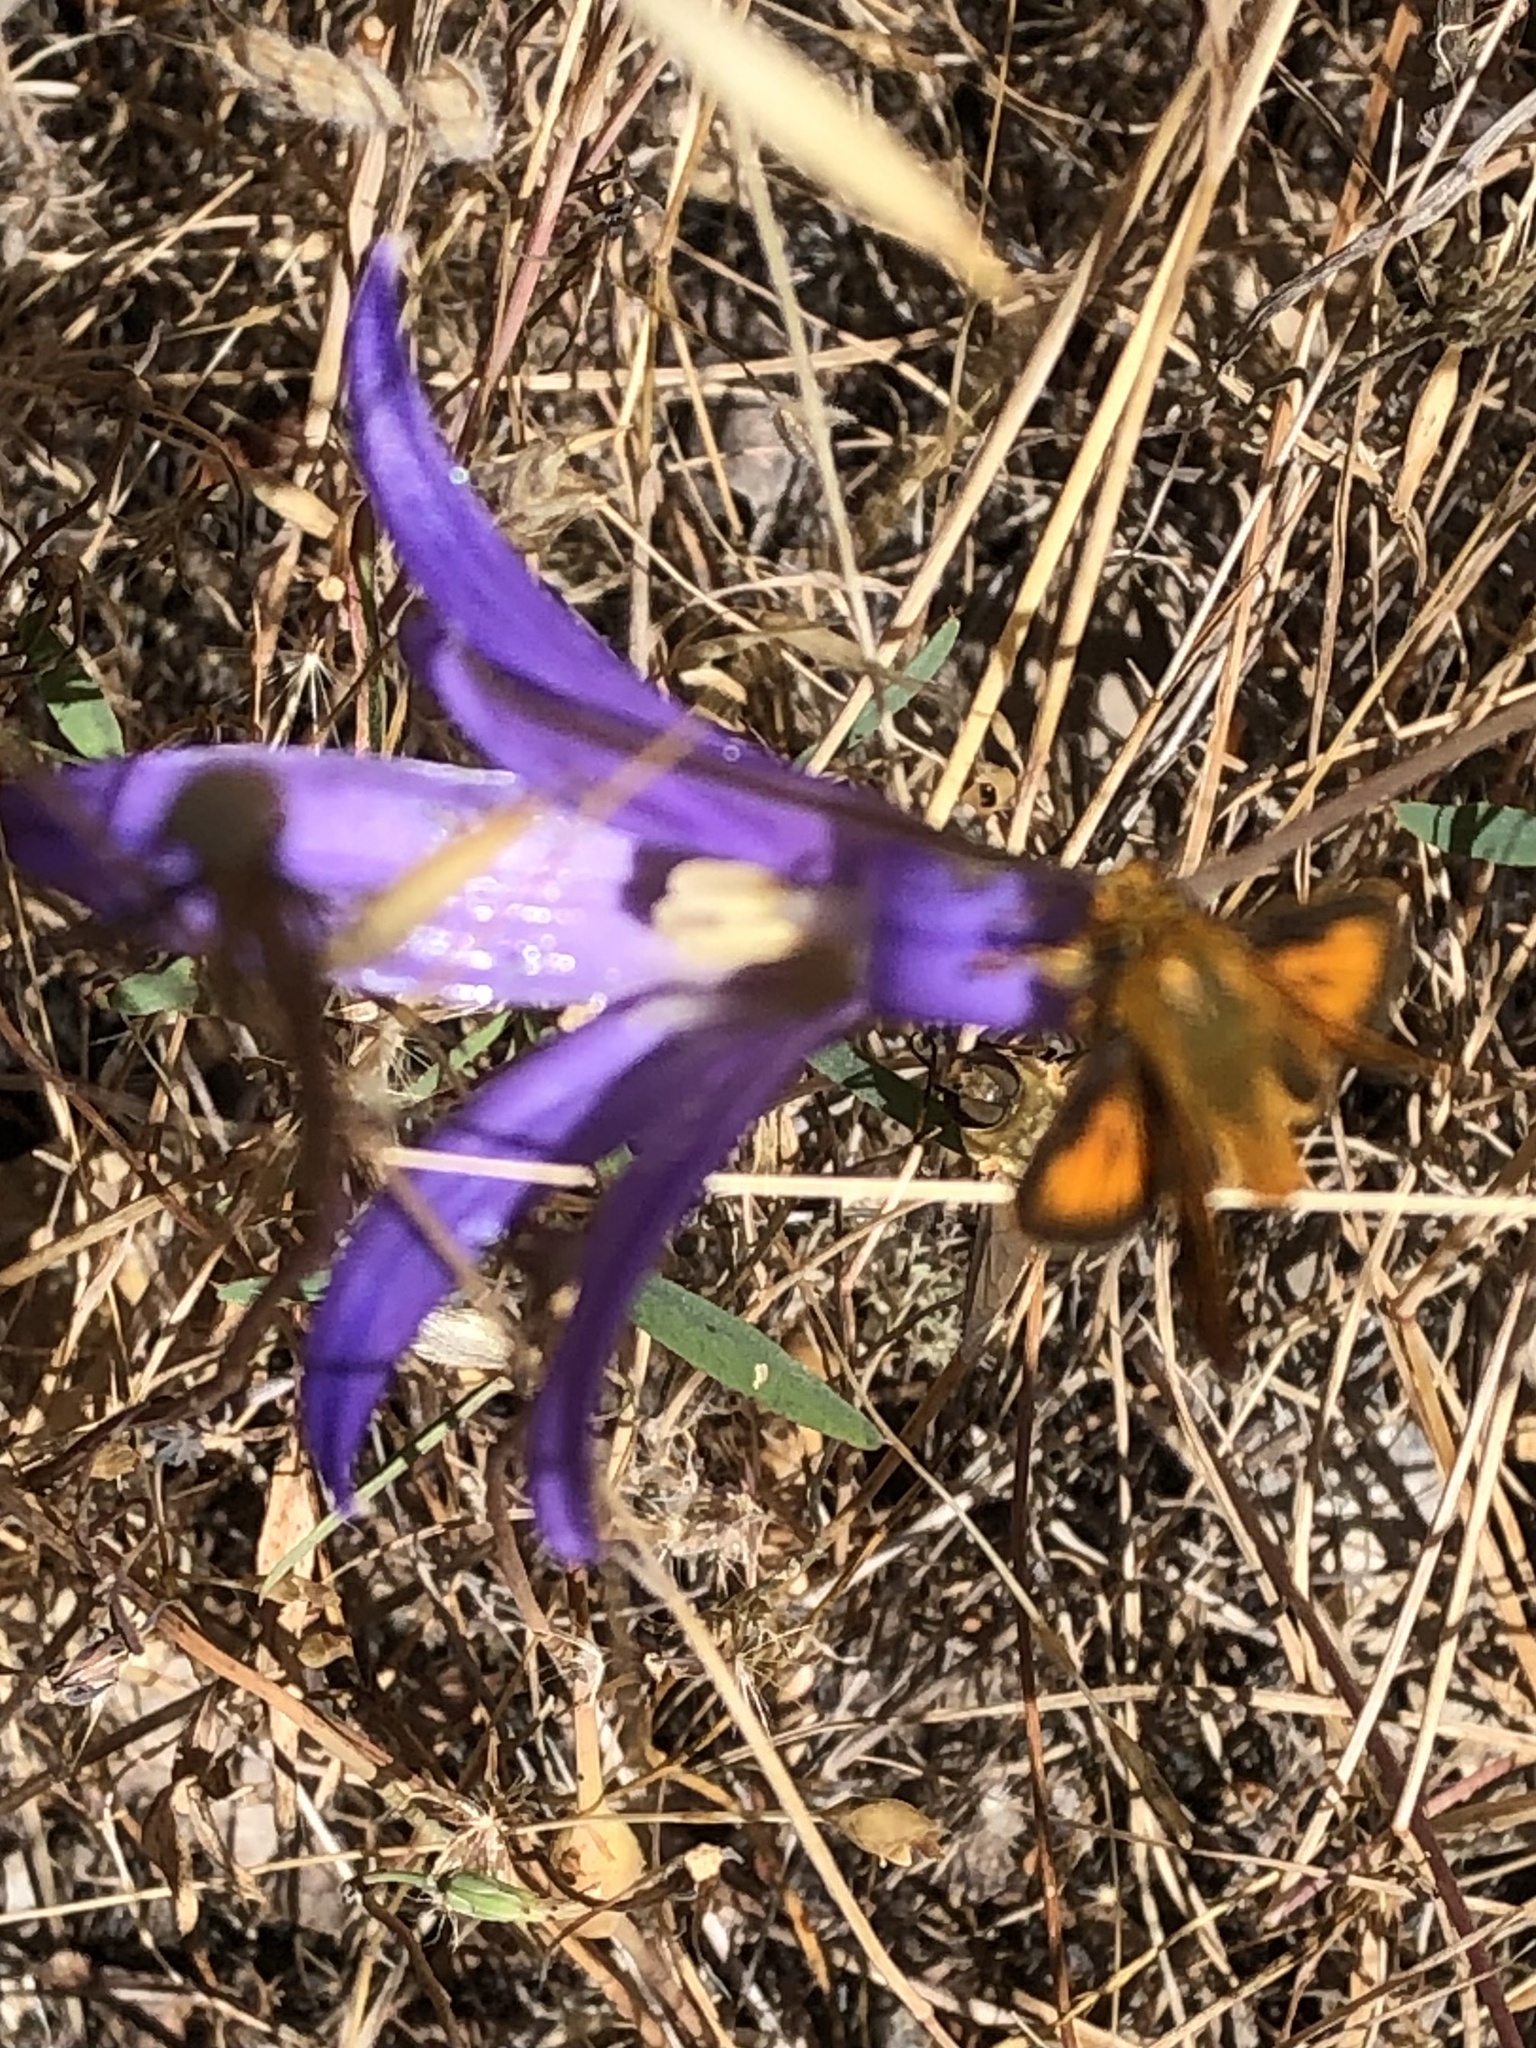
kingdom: Plantae
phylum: Tracheophyta
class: Liliopsida
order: Asparagales
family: Asparagaceae
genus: Brodiaea
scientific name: Brodiaea elegans
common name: Elegant cluster-lily
